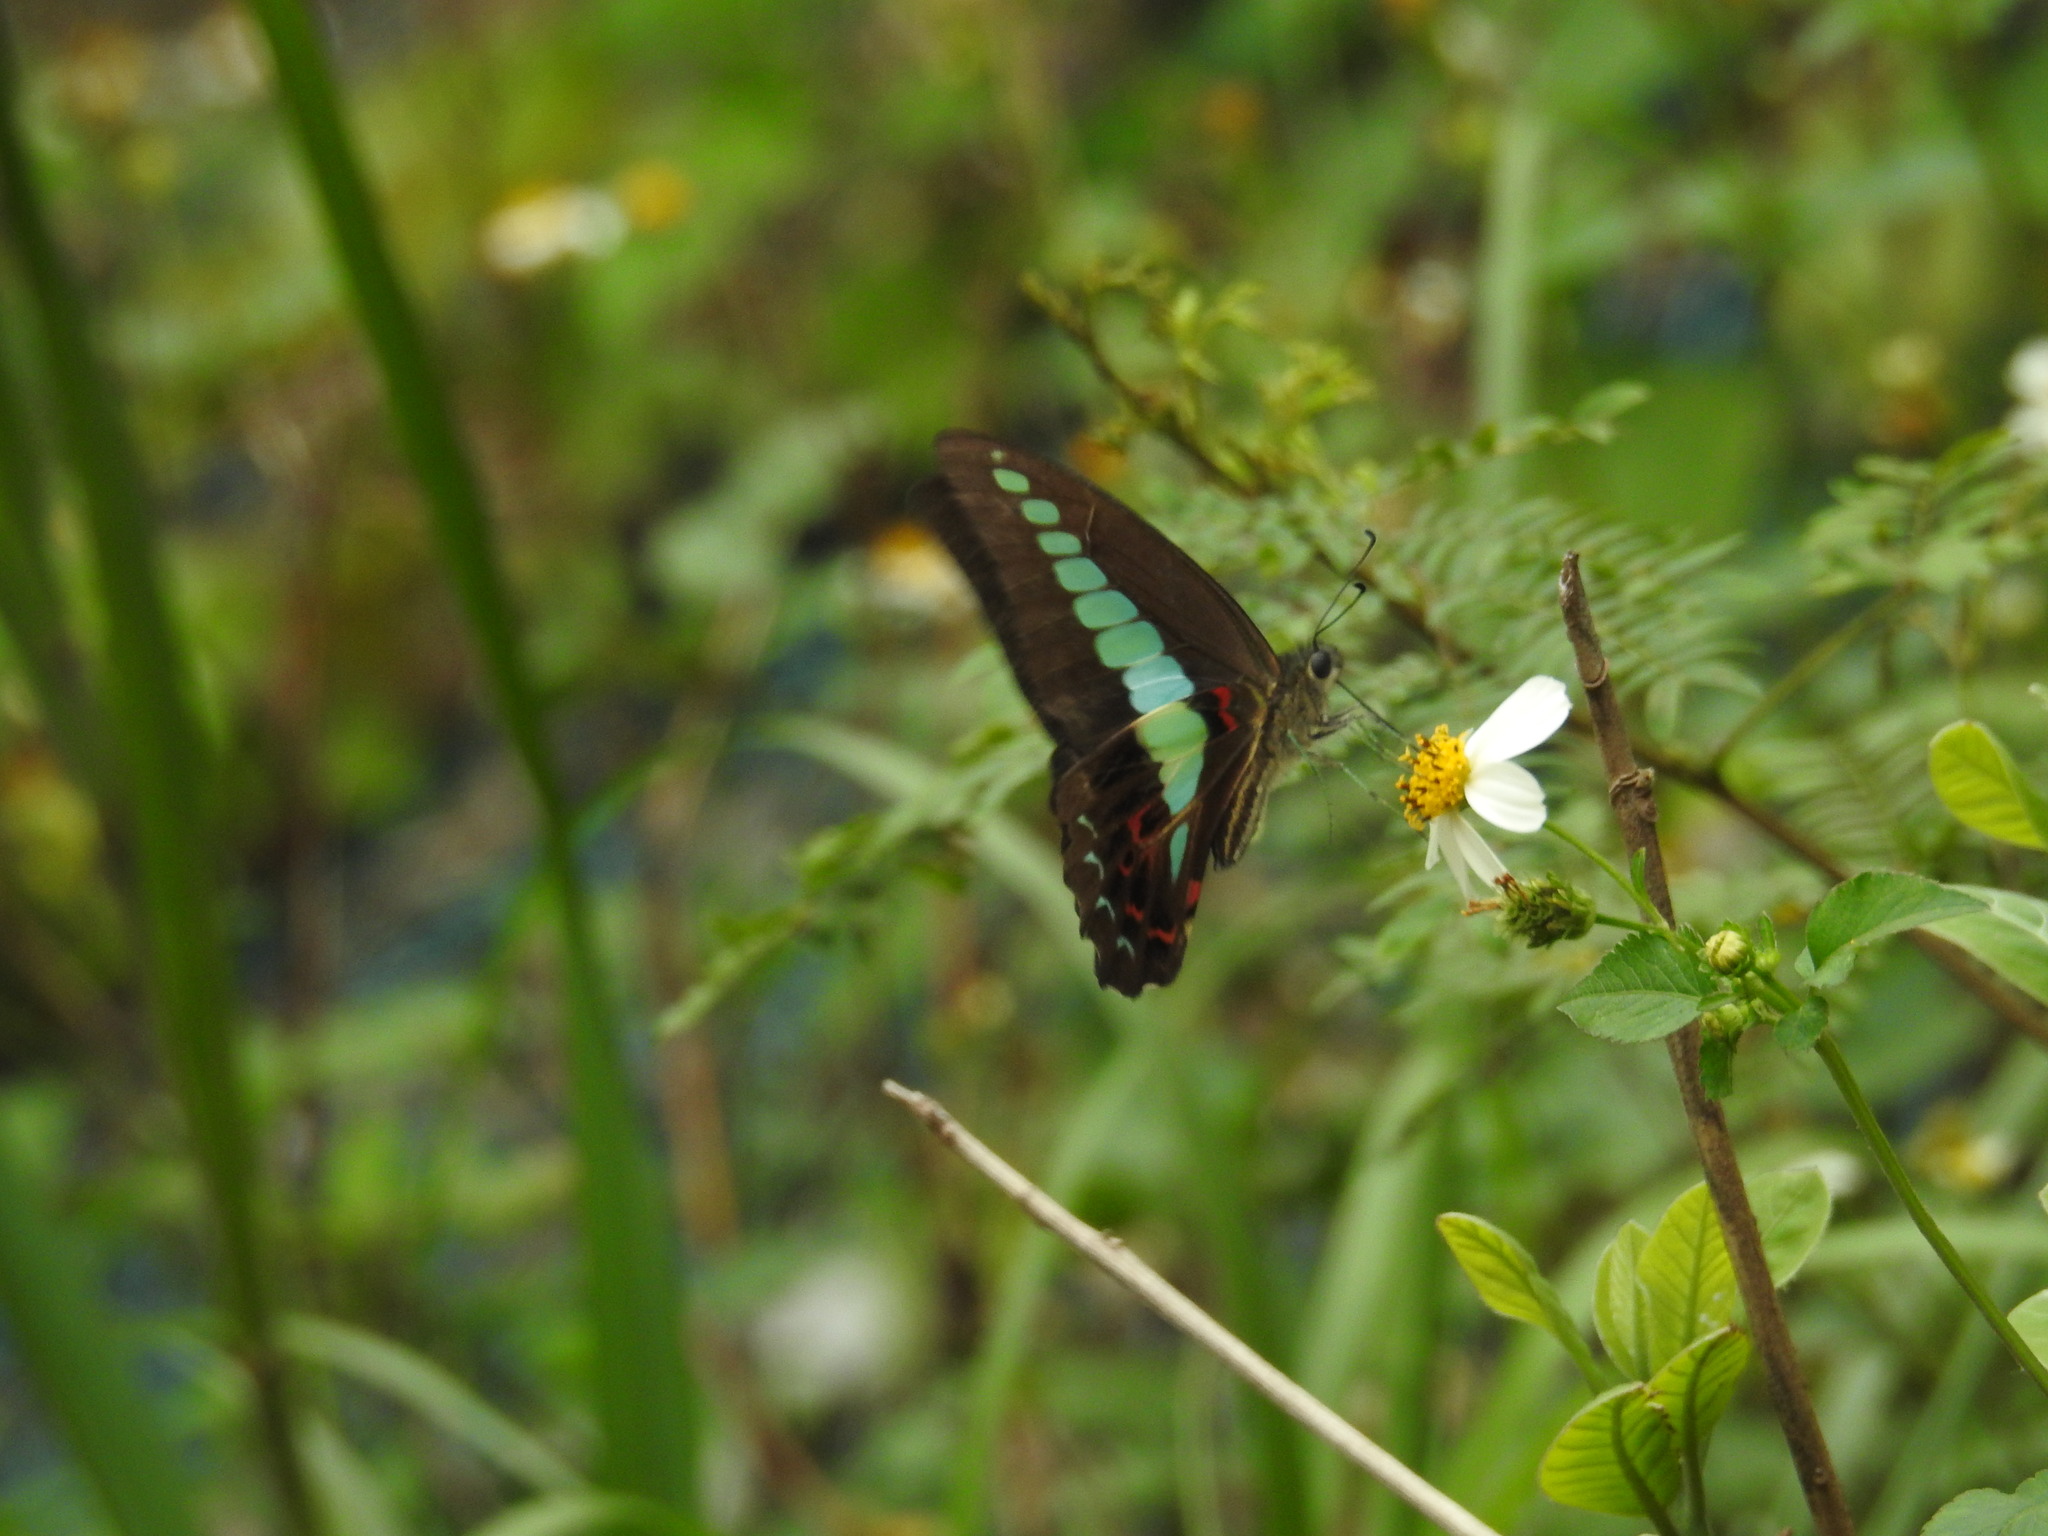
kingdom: Fungi
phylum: Ascomycota
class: Sordariomycetes
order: Microascales
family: Microascaceae
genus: Graphium
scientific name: Graphium sarpedon
